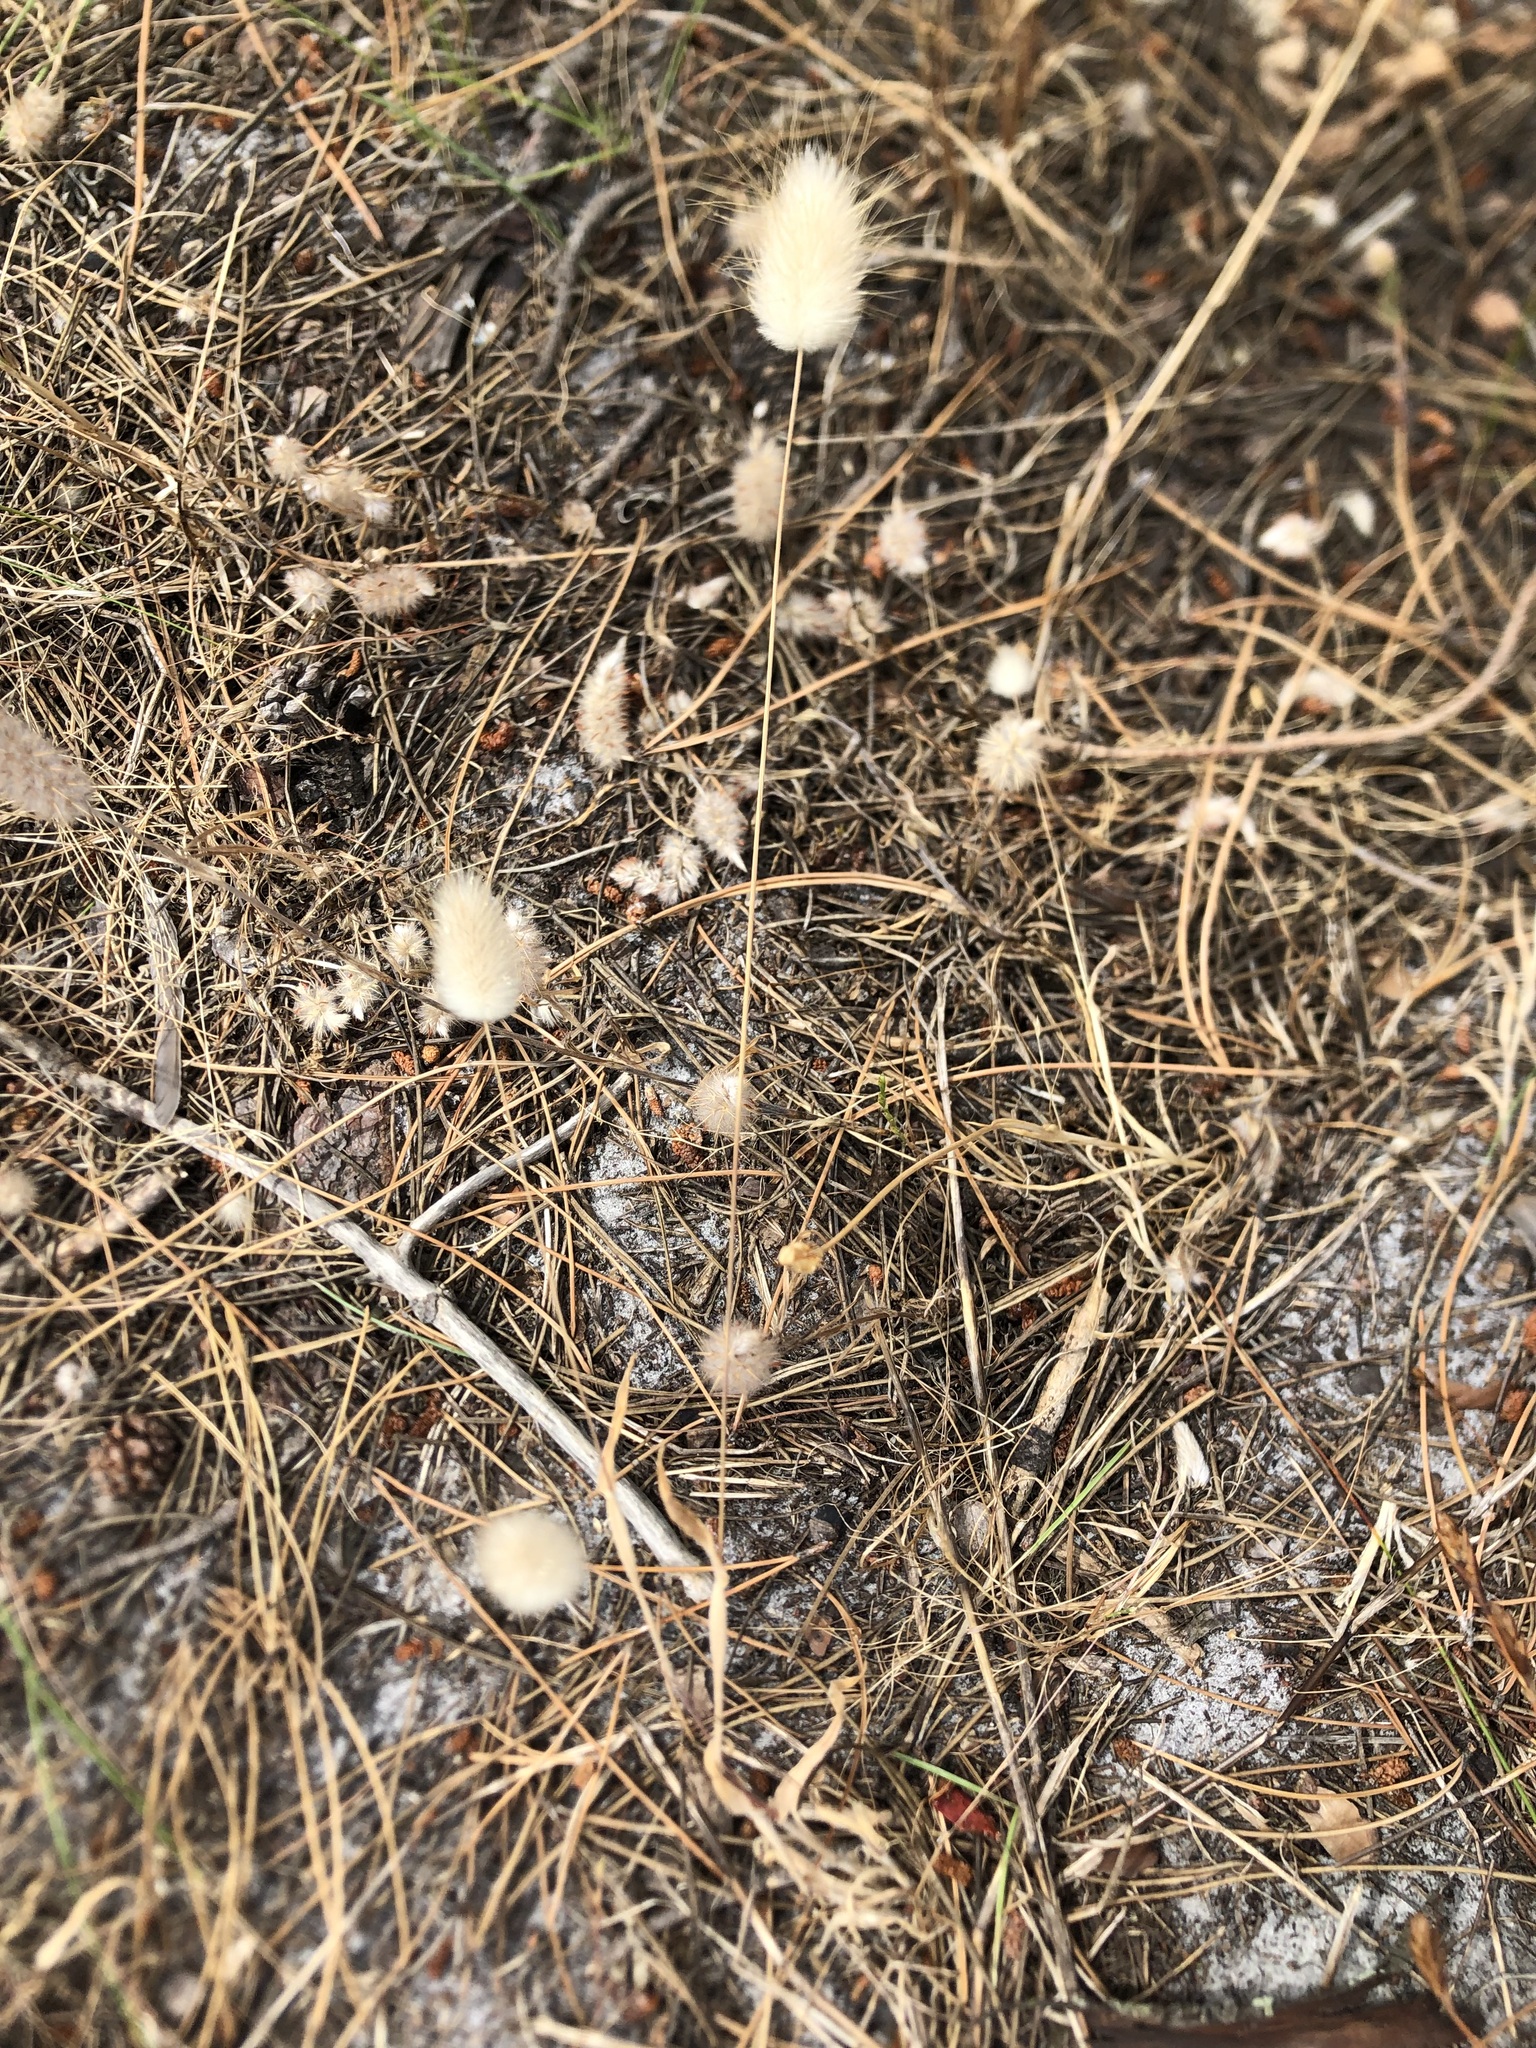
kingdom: Plantae
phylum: Tracheophyta
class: Liliopsida
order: Poales
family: Poaceae
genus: Lagurus
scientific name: Lagurus ovatus
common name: Hare's-tail
